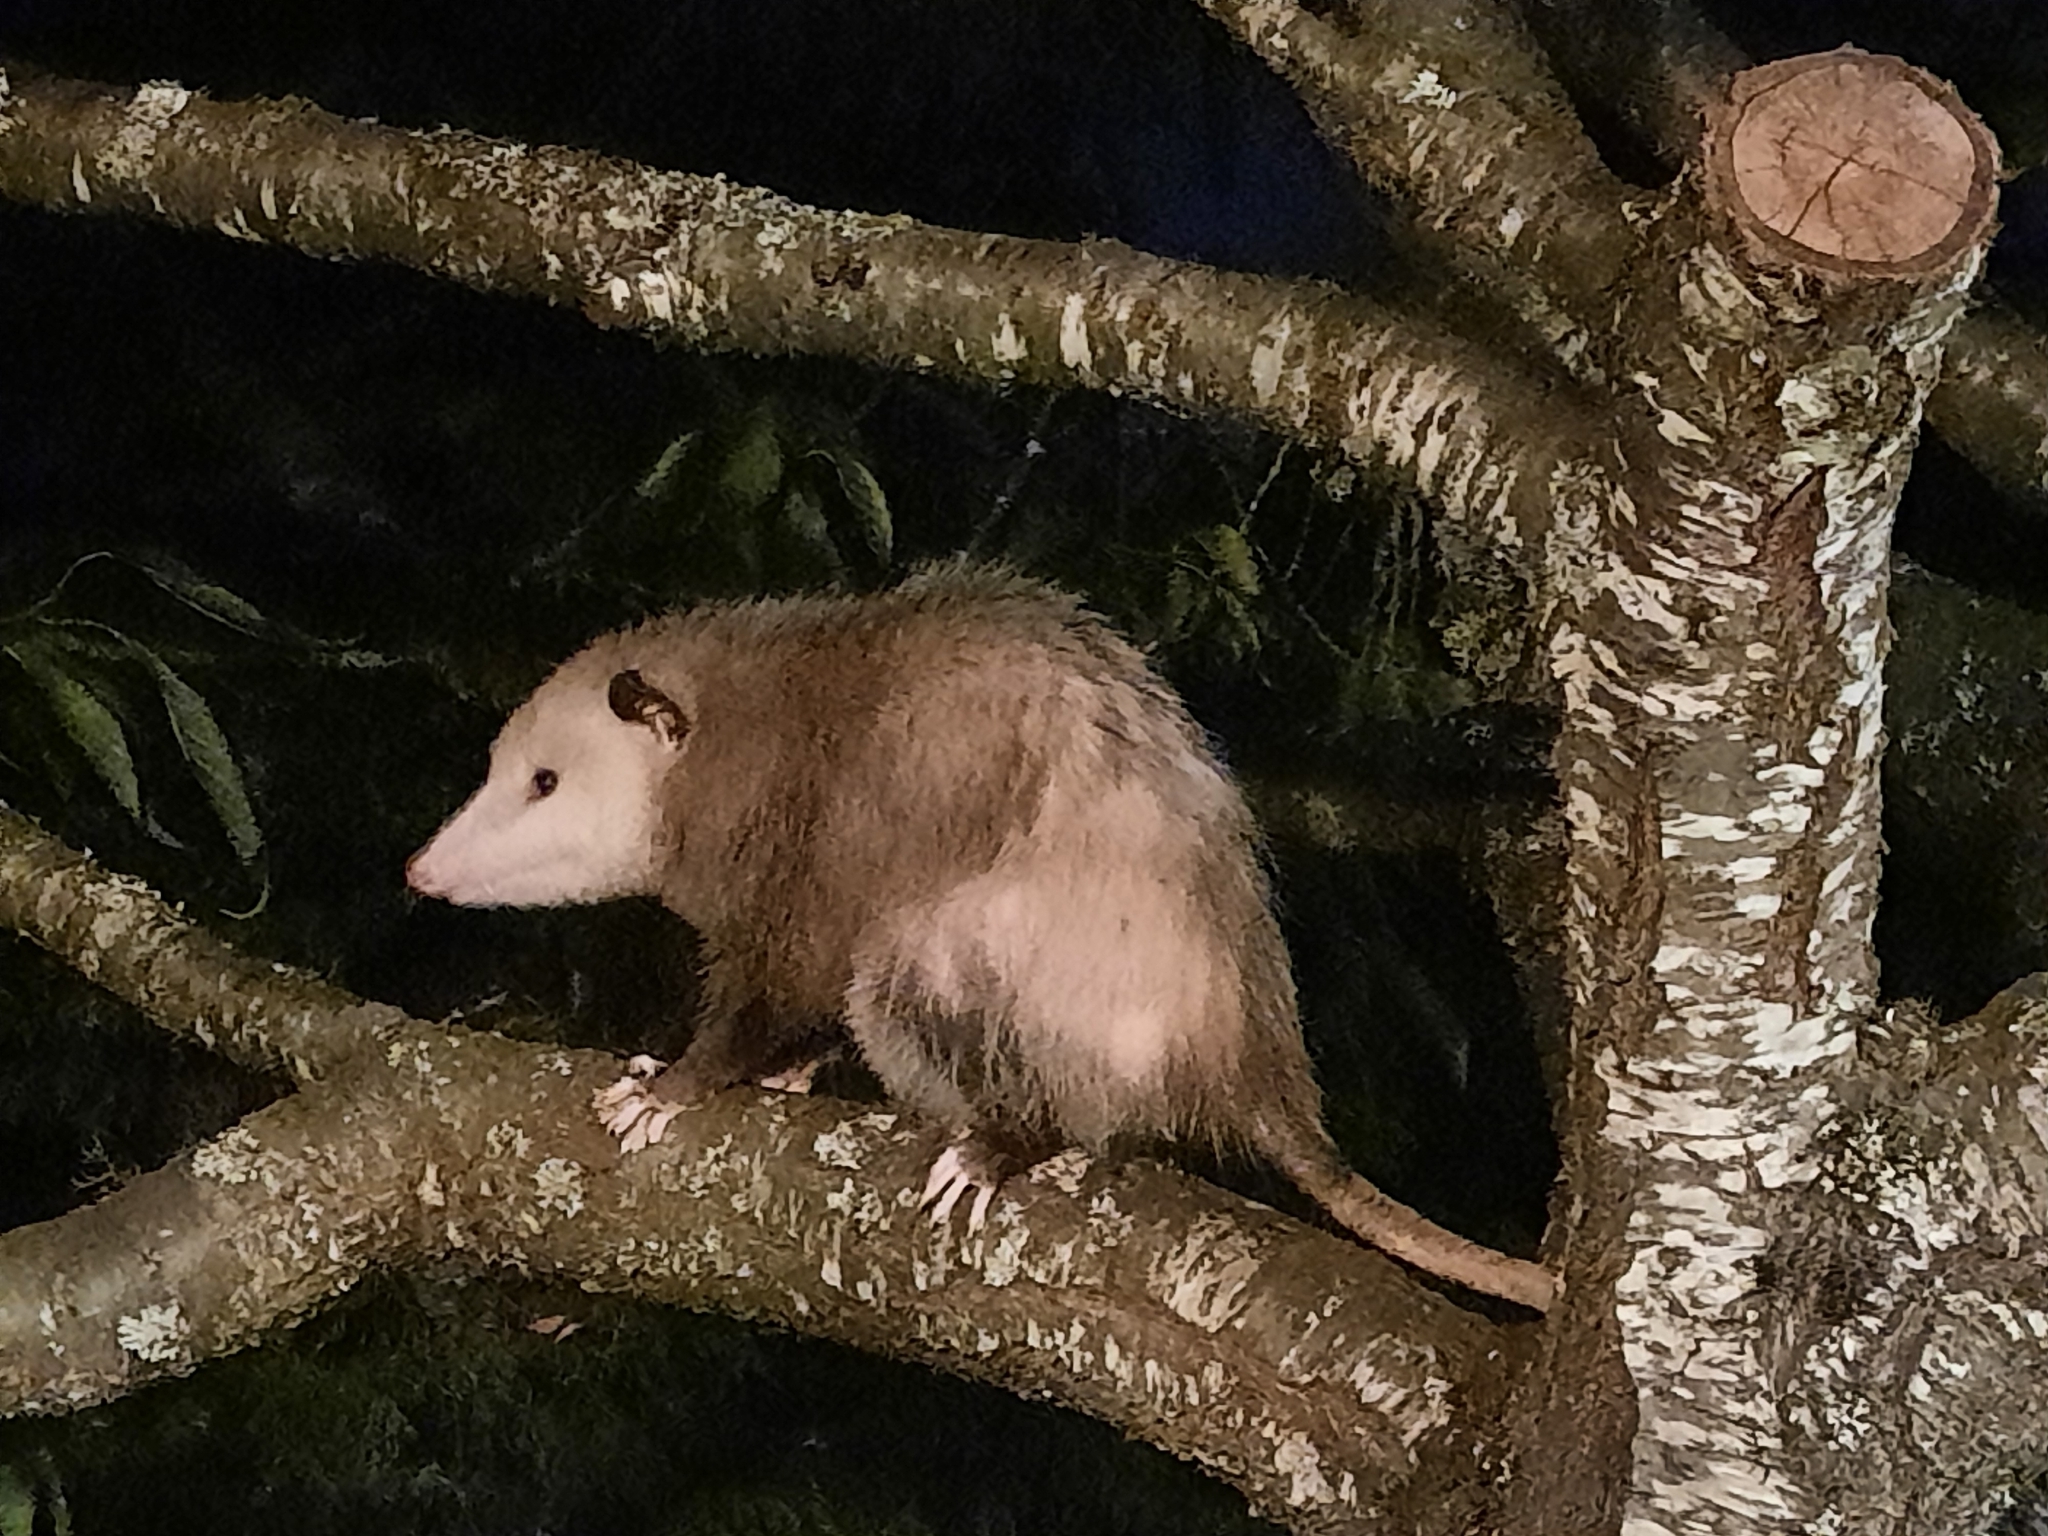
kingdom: Animalia
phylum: Chordata
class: Mammalia
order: Didelphimorphia
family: Didelphidae
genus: Didelphis
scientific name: Didelphis virginiana
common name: Virginia opossum
